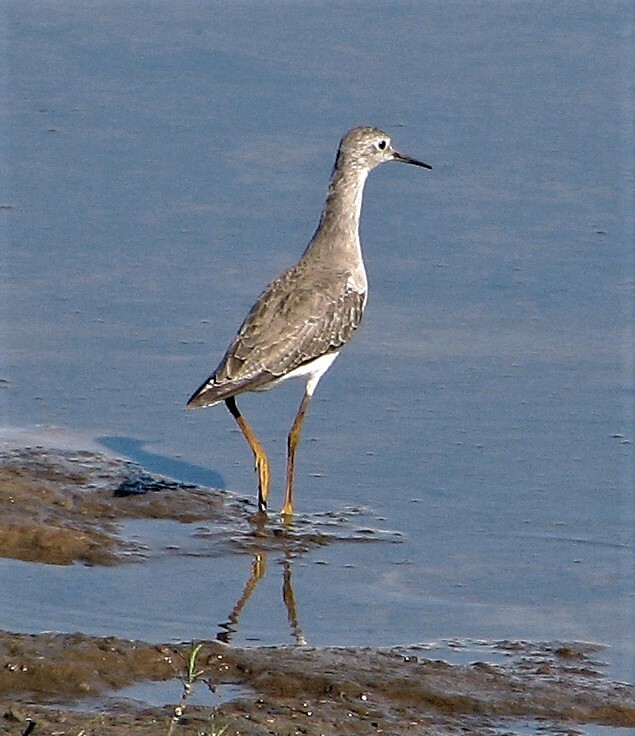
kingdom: Animalia
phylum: Chordata
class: Aves
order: Charadriiformes
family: Scolopacidae
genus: Tringa
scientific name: Tringa flavipes
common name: Lesser yellowlegs
